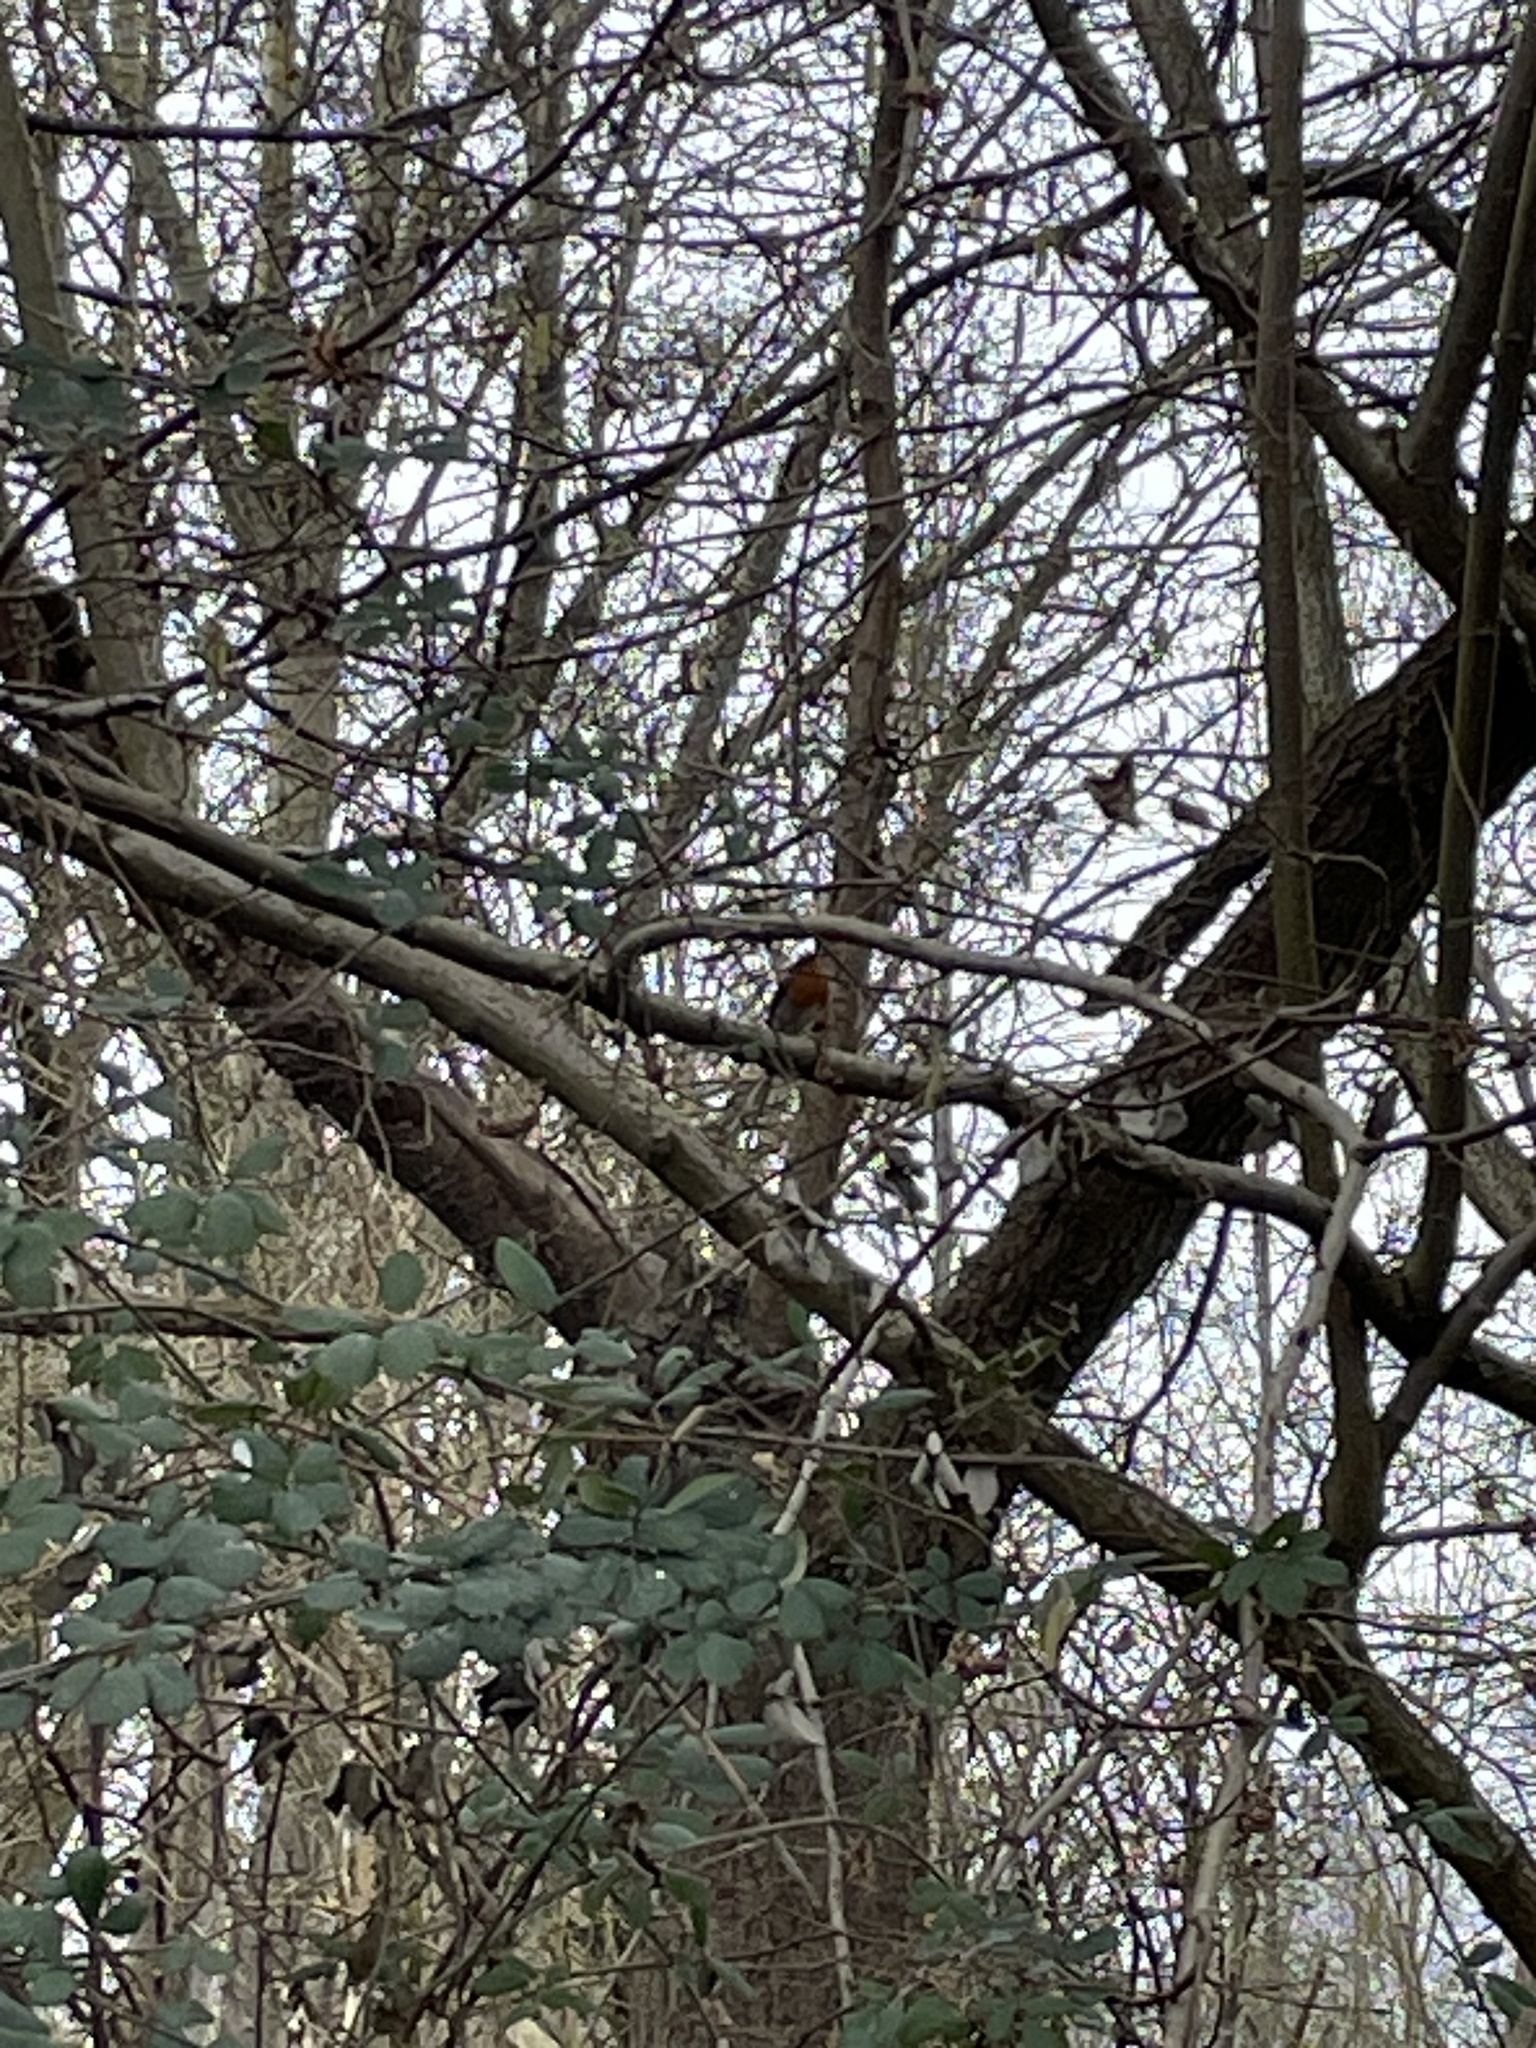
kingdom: Animalia
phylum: Chordata
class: Aves
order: Passeriformes
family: Muscicapidae
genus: Erithacus
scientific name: Erithacus rubecula
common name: European robin
